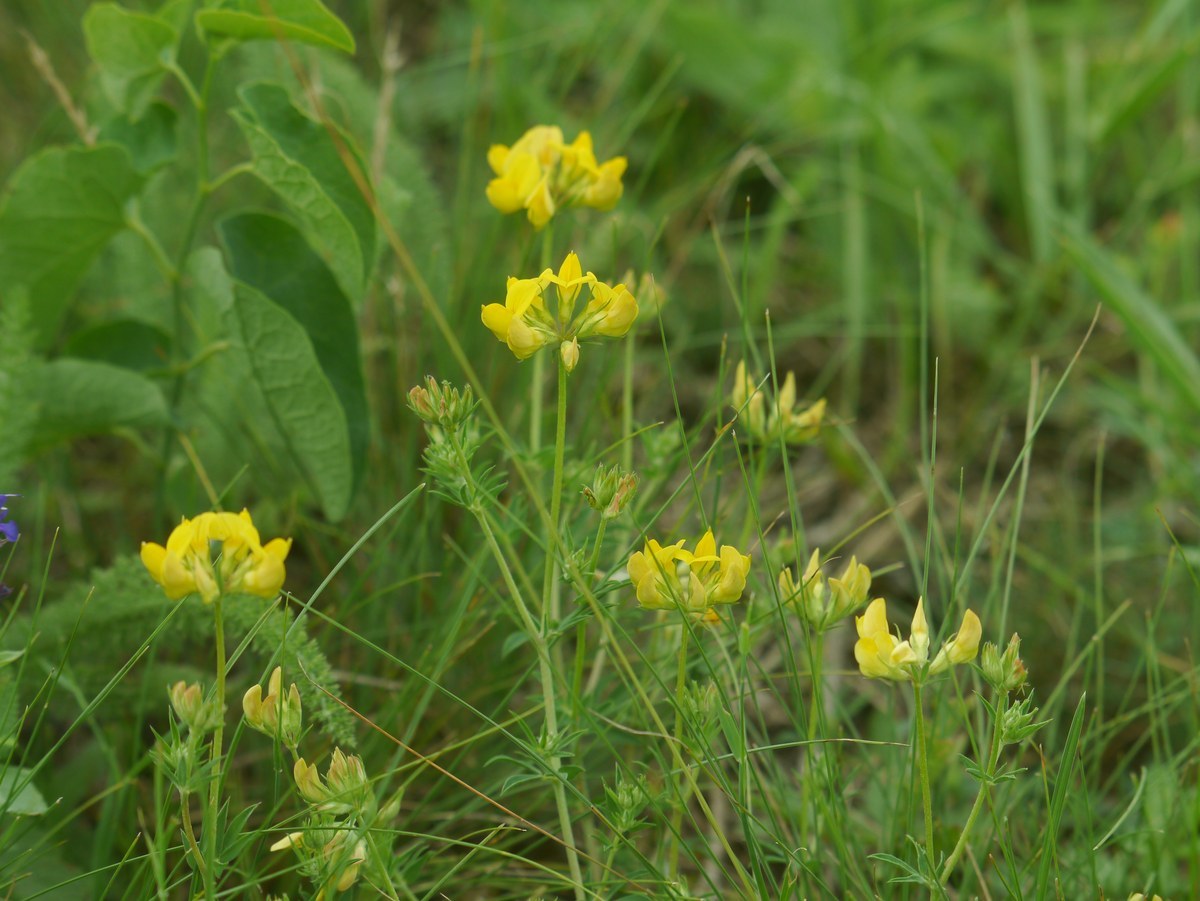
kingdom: Plantae
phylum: Tracheophyta
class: Magnoliopsida
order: Fabales
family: Fabaceae
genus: Lotus
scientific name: Lotus corniculatus
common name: Common bird's-foot-trefoil
